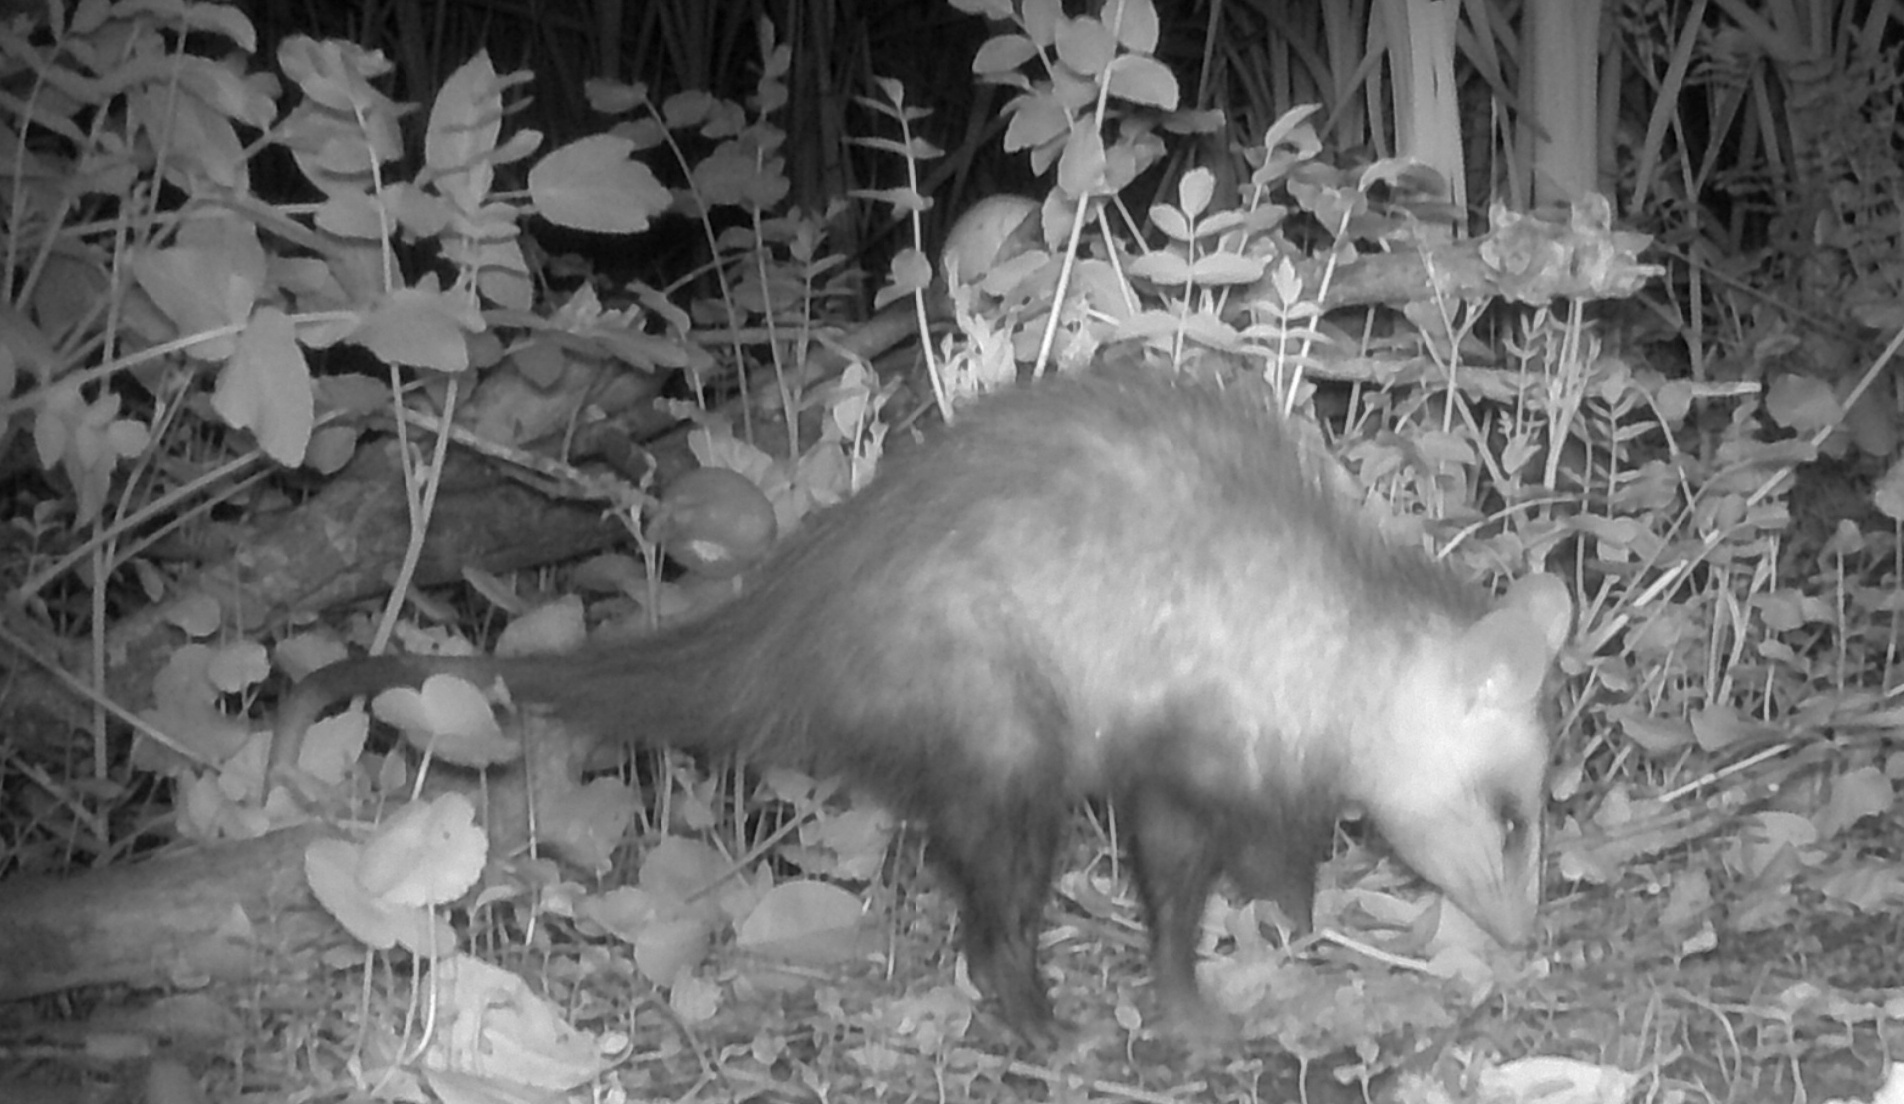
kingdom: Animalia
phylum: Chordata
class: Mammalia
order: Didelphimorphia
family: Didelphidae
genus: Didelphis
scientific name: Didelphis albiventris
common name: White-eared opossum
